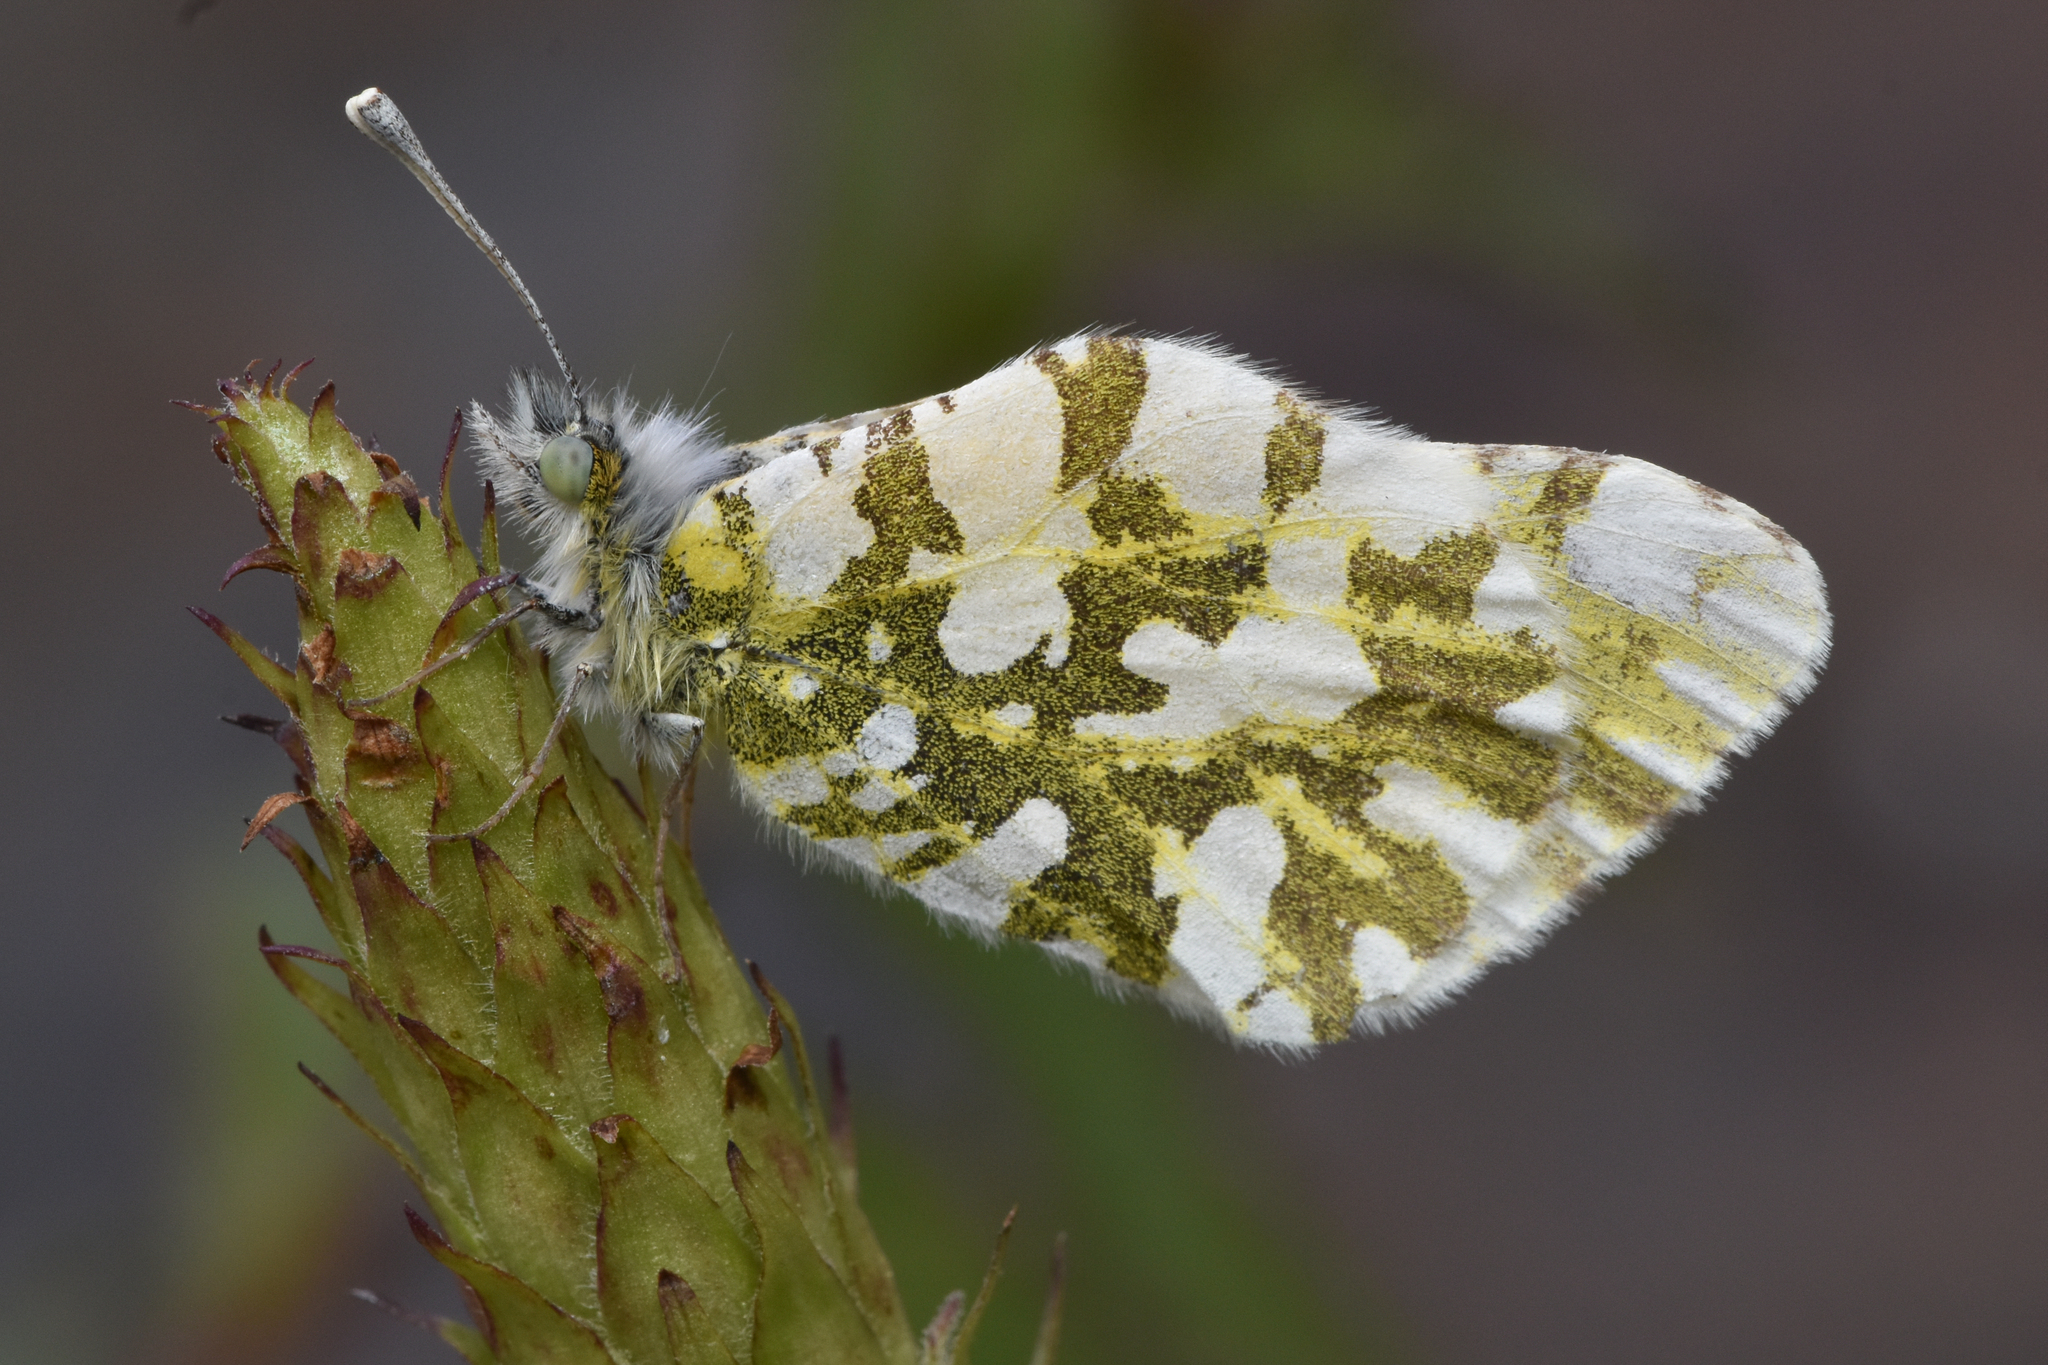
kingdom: Animalia
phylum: Arthropoda
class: Insecta
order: Lepidoptera
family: Pieridae
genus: Euchloe
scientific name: Euchloe ausonides
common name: Creamy marblewing
